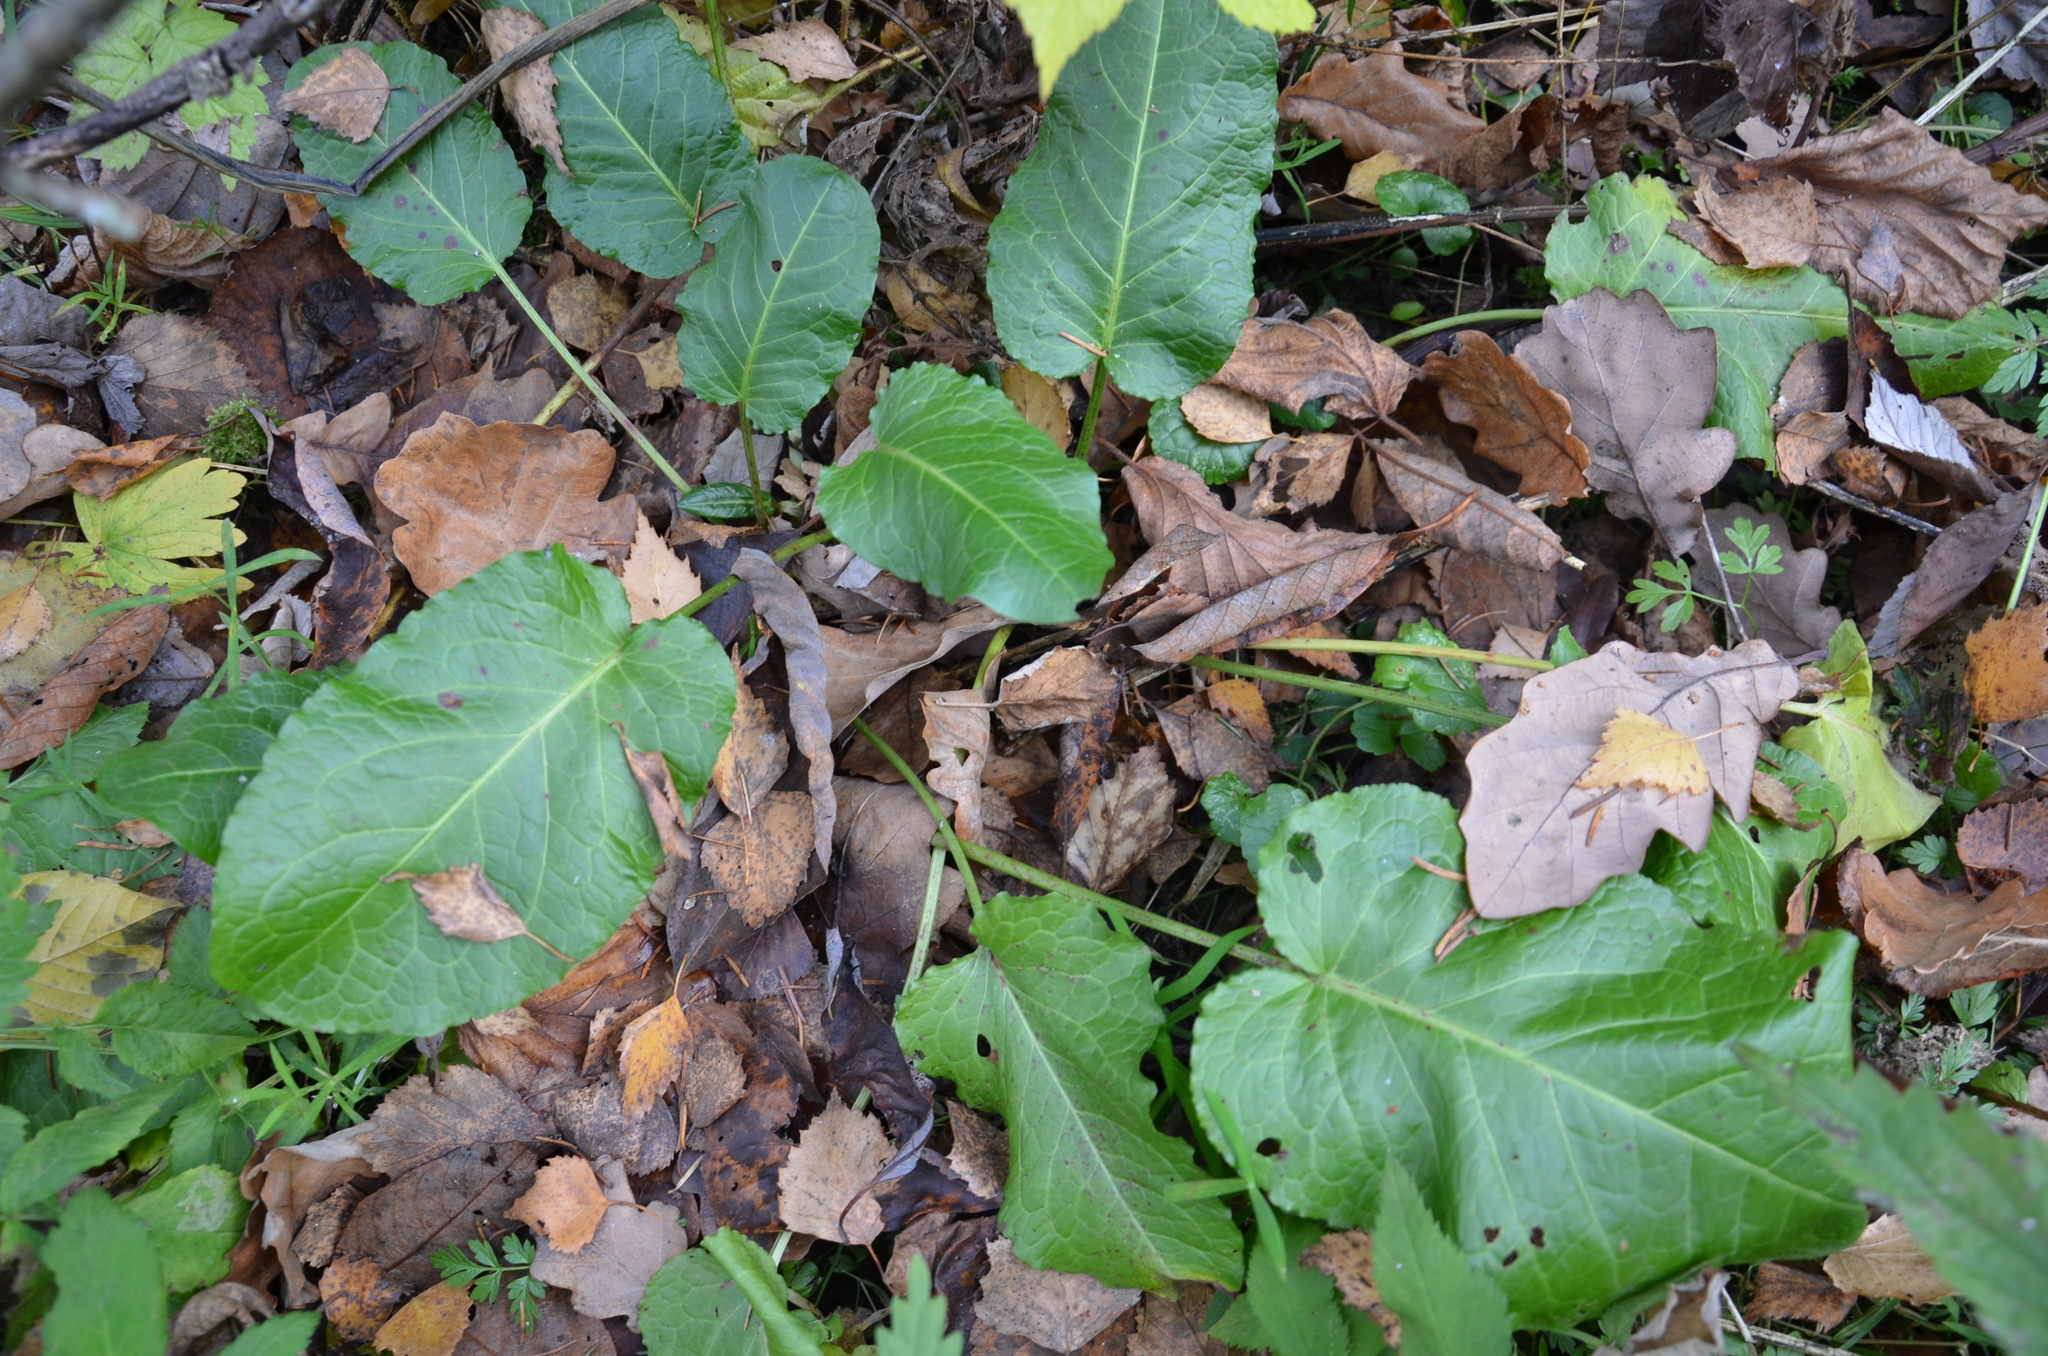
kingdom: Plantae
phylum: Tracheophyta
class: Magnoliopsida
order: Caryophyllales
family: Polygonaceae
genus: Rumex
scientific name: Rumex obtusifolius
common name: Bitter dock
